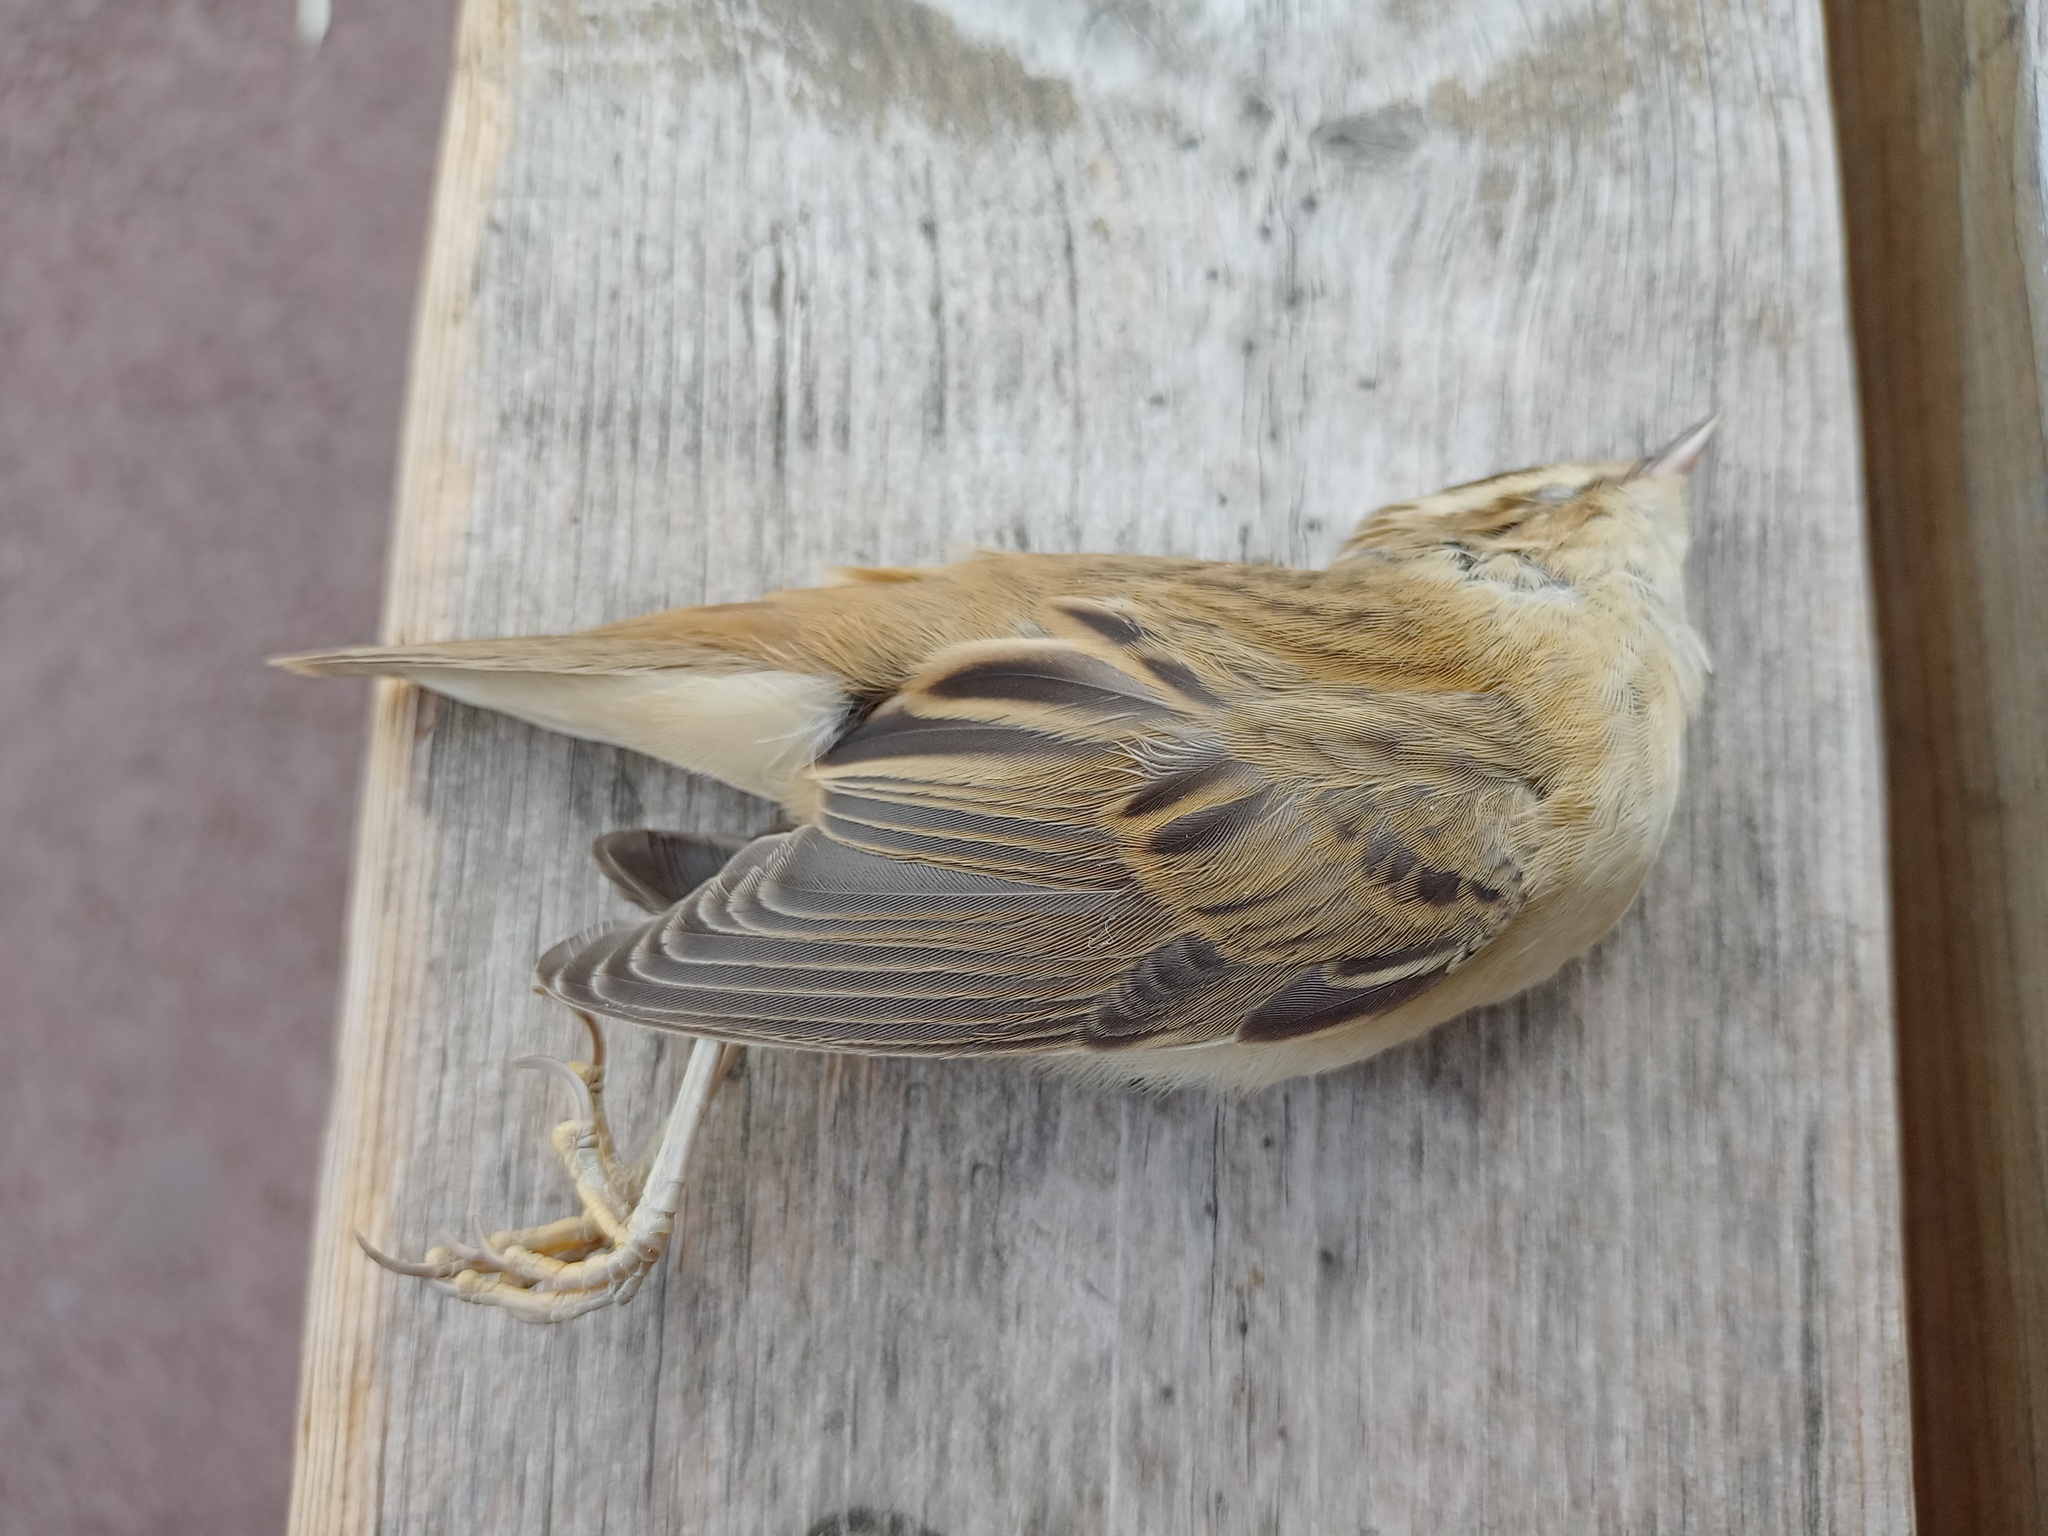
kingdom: Animalia
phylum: Chordata
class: Aves
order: Passeriformes
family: Acrocephalidae
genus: Acrocephalus
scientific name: Acrocephalus schoenobaenus
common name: Sedge warbler
